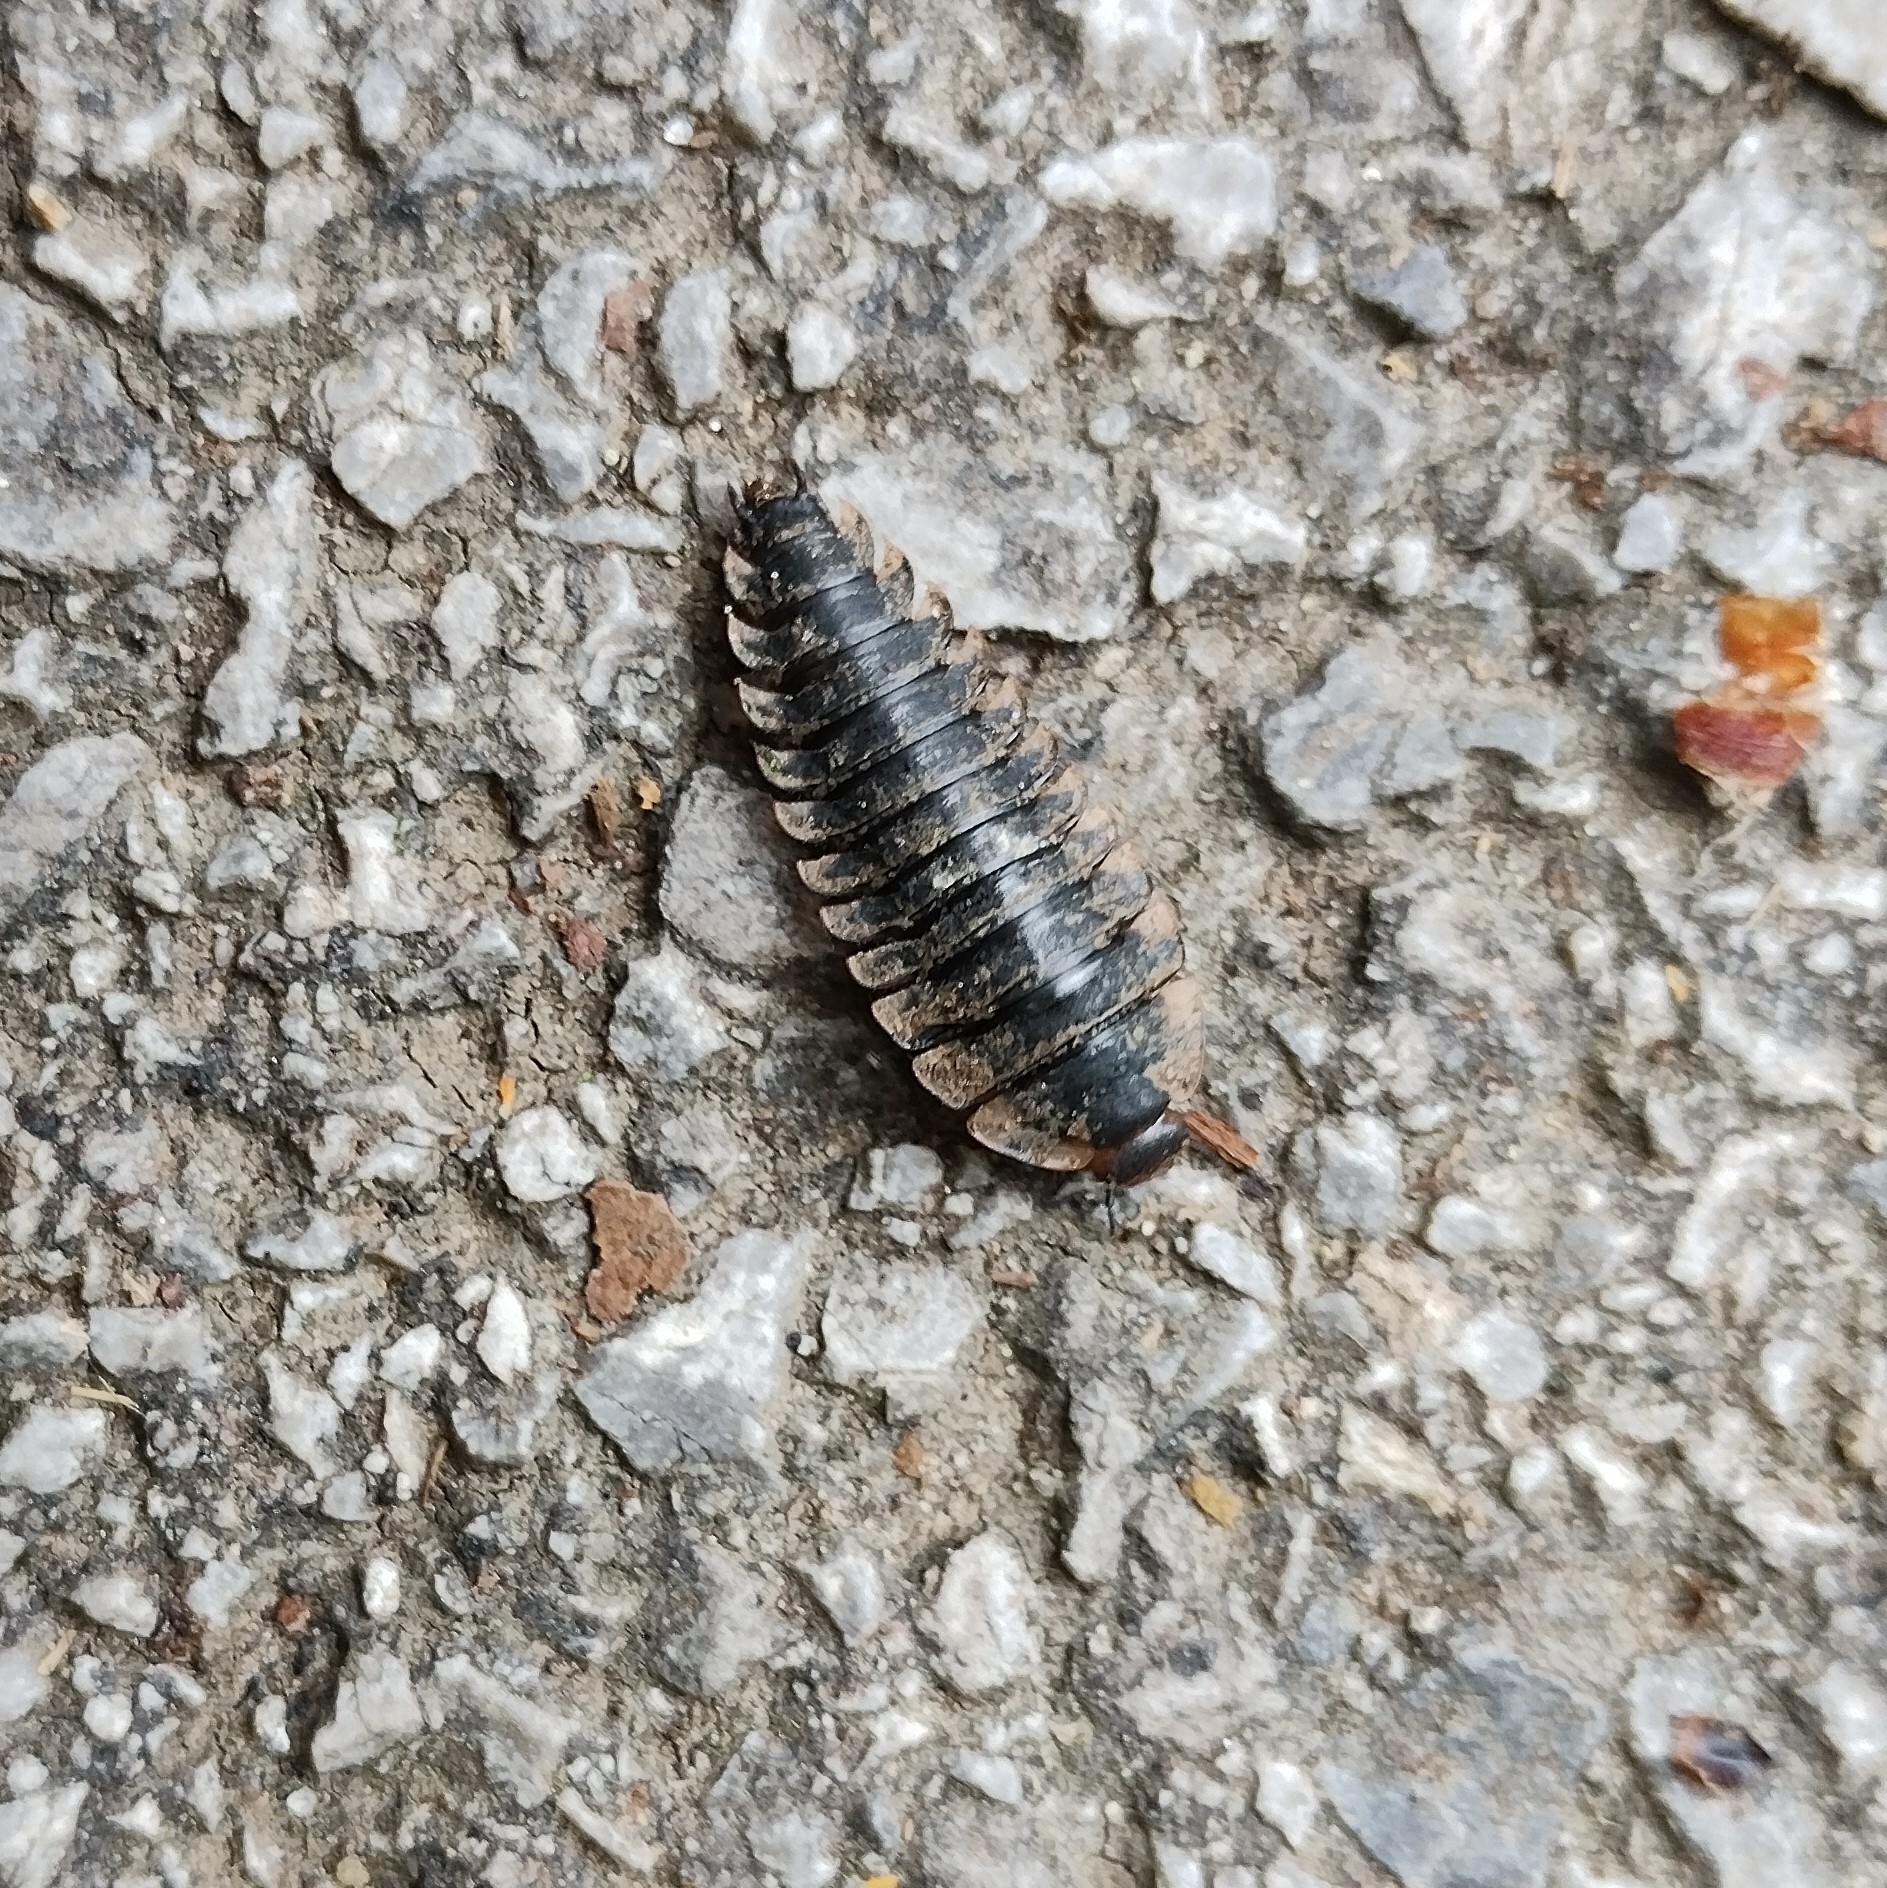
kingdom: Animalia
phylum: Arthropoda
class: Insecta
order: Coleoptera
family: Staphylinidae
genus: Oiceoptoma
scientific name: Oiceoptoma thoracicum
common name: Red-breasted carrion beetle
